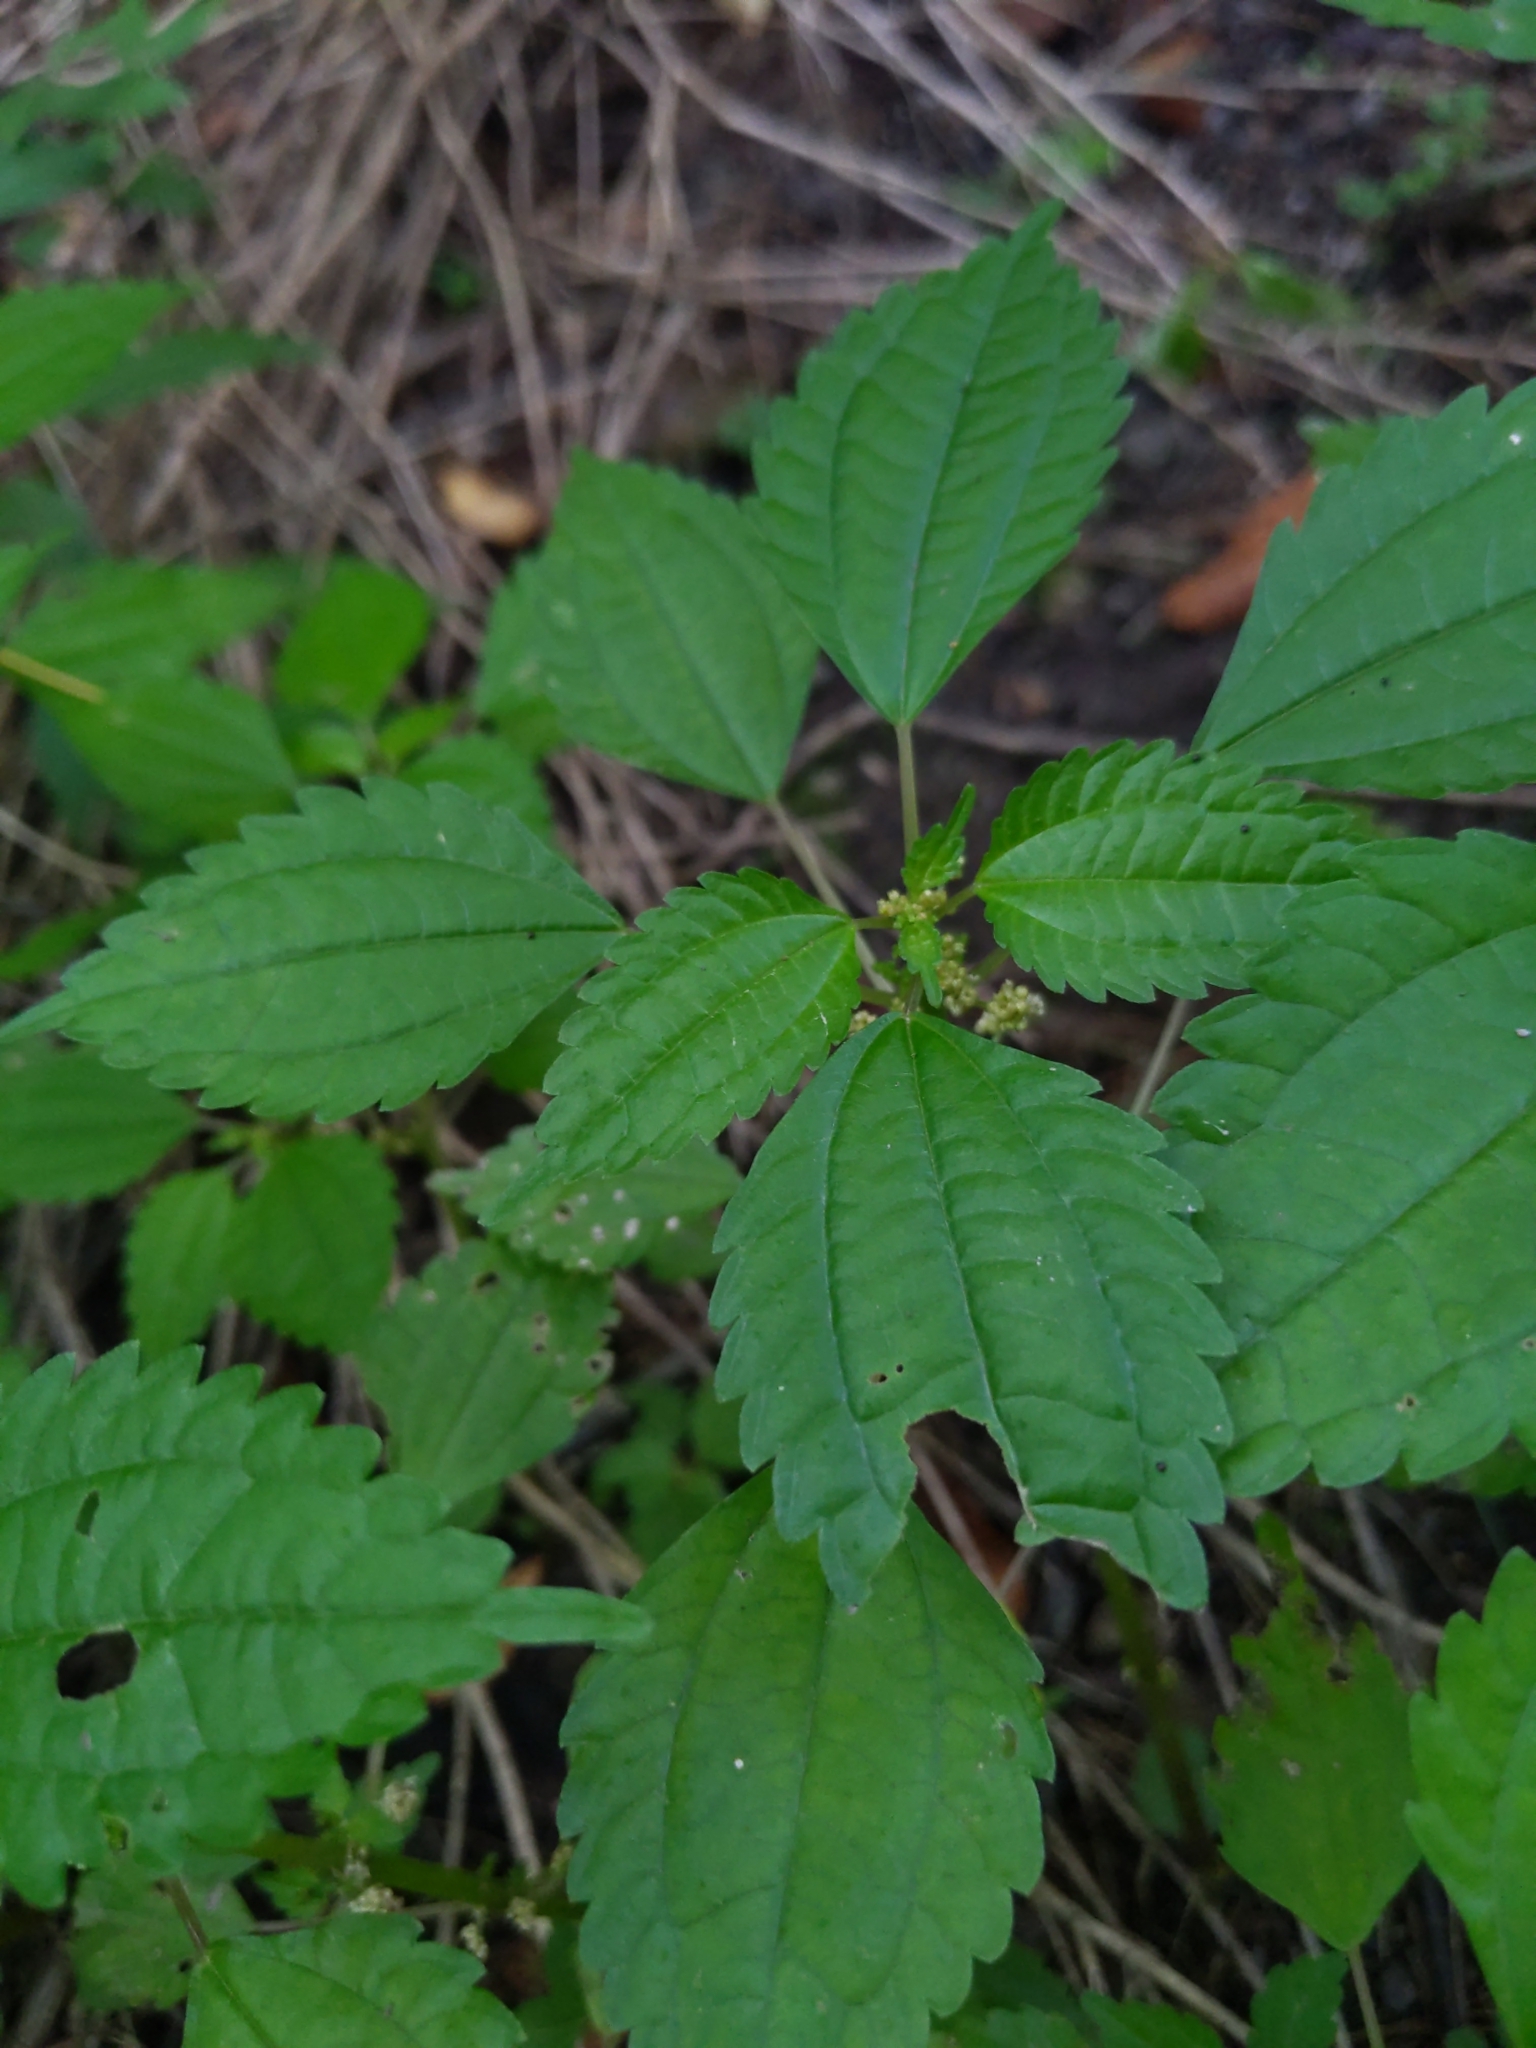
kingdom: Plantae
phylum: Tracheophyta
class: Magnoliopsida
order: Rosales
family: Urticaceae
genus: Pilea
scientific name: Pilea pumila
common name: Clearweed
